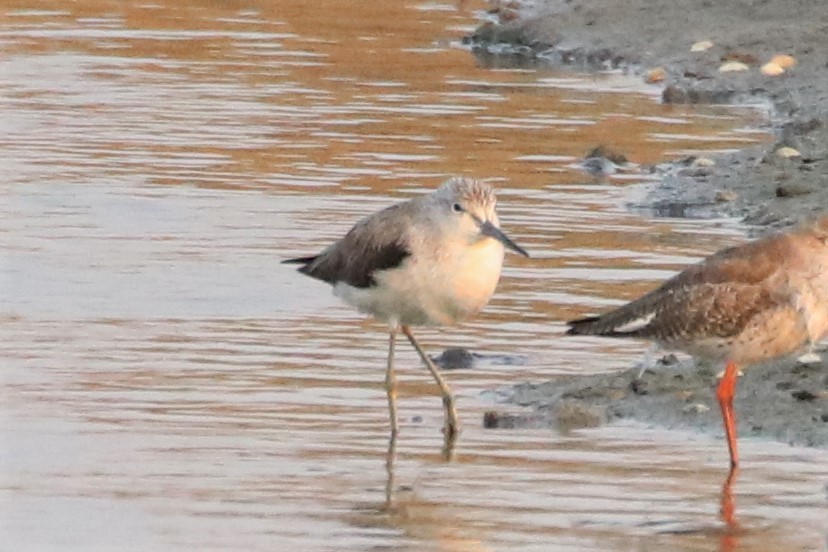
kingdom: Animalia
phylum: Chordata
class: Aves
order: Charadriiformes
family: Scolopacidae
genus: Tringa
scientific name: Tringa nebularia
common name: Common greenshank
